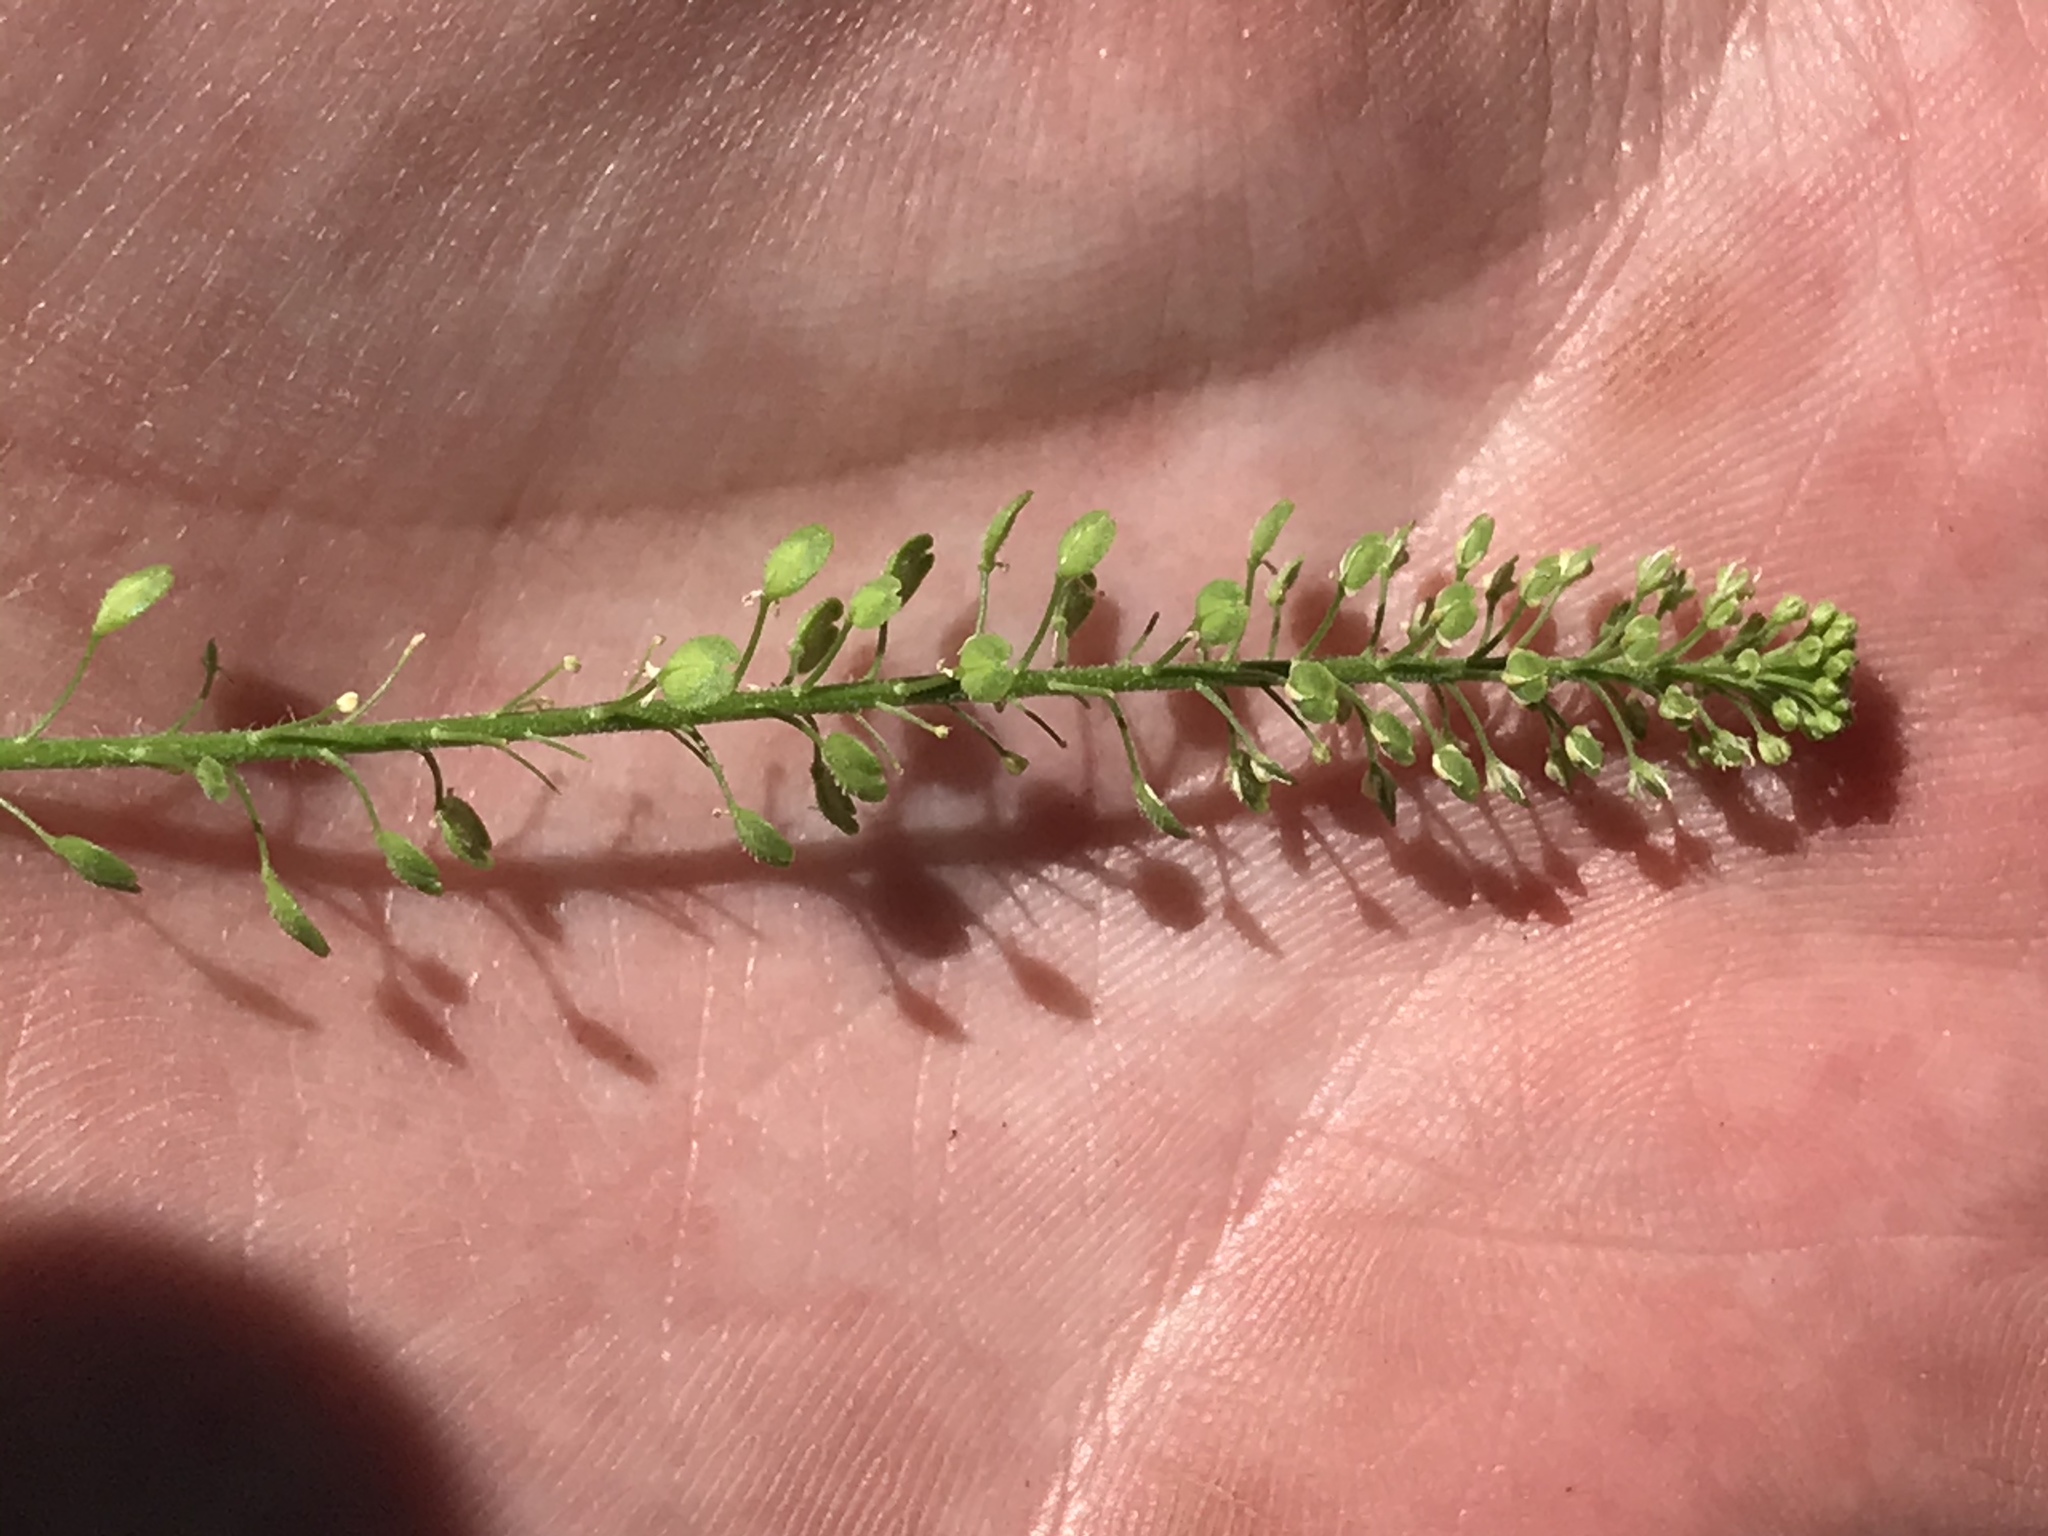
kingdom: Plantae
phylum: Tracheophyta
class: Magnoliopsida
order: Brassicales
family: Brassicaceae
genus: Lepidium
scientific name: Lepidium virginicum
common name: Least pepperwort
